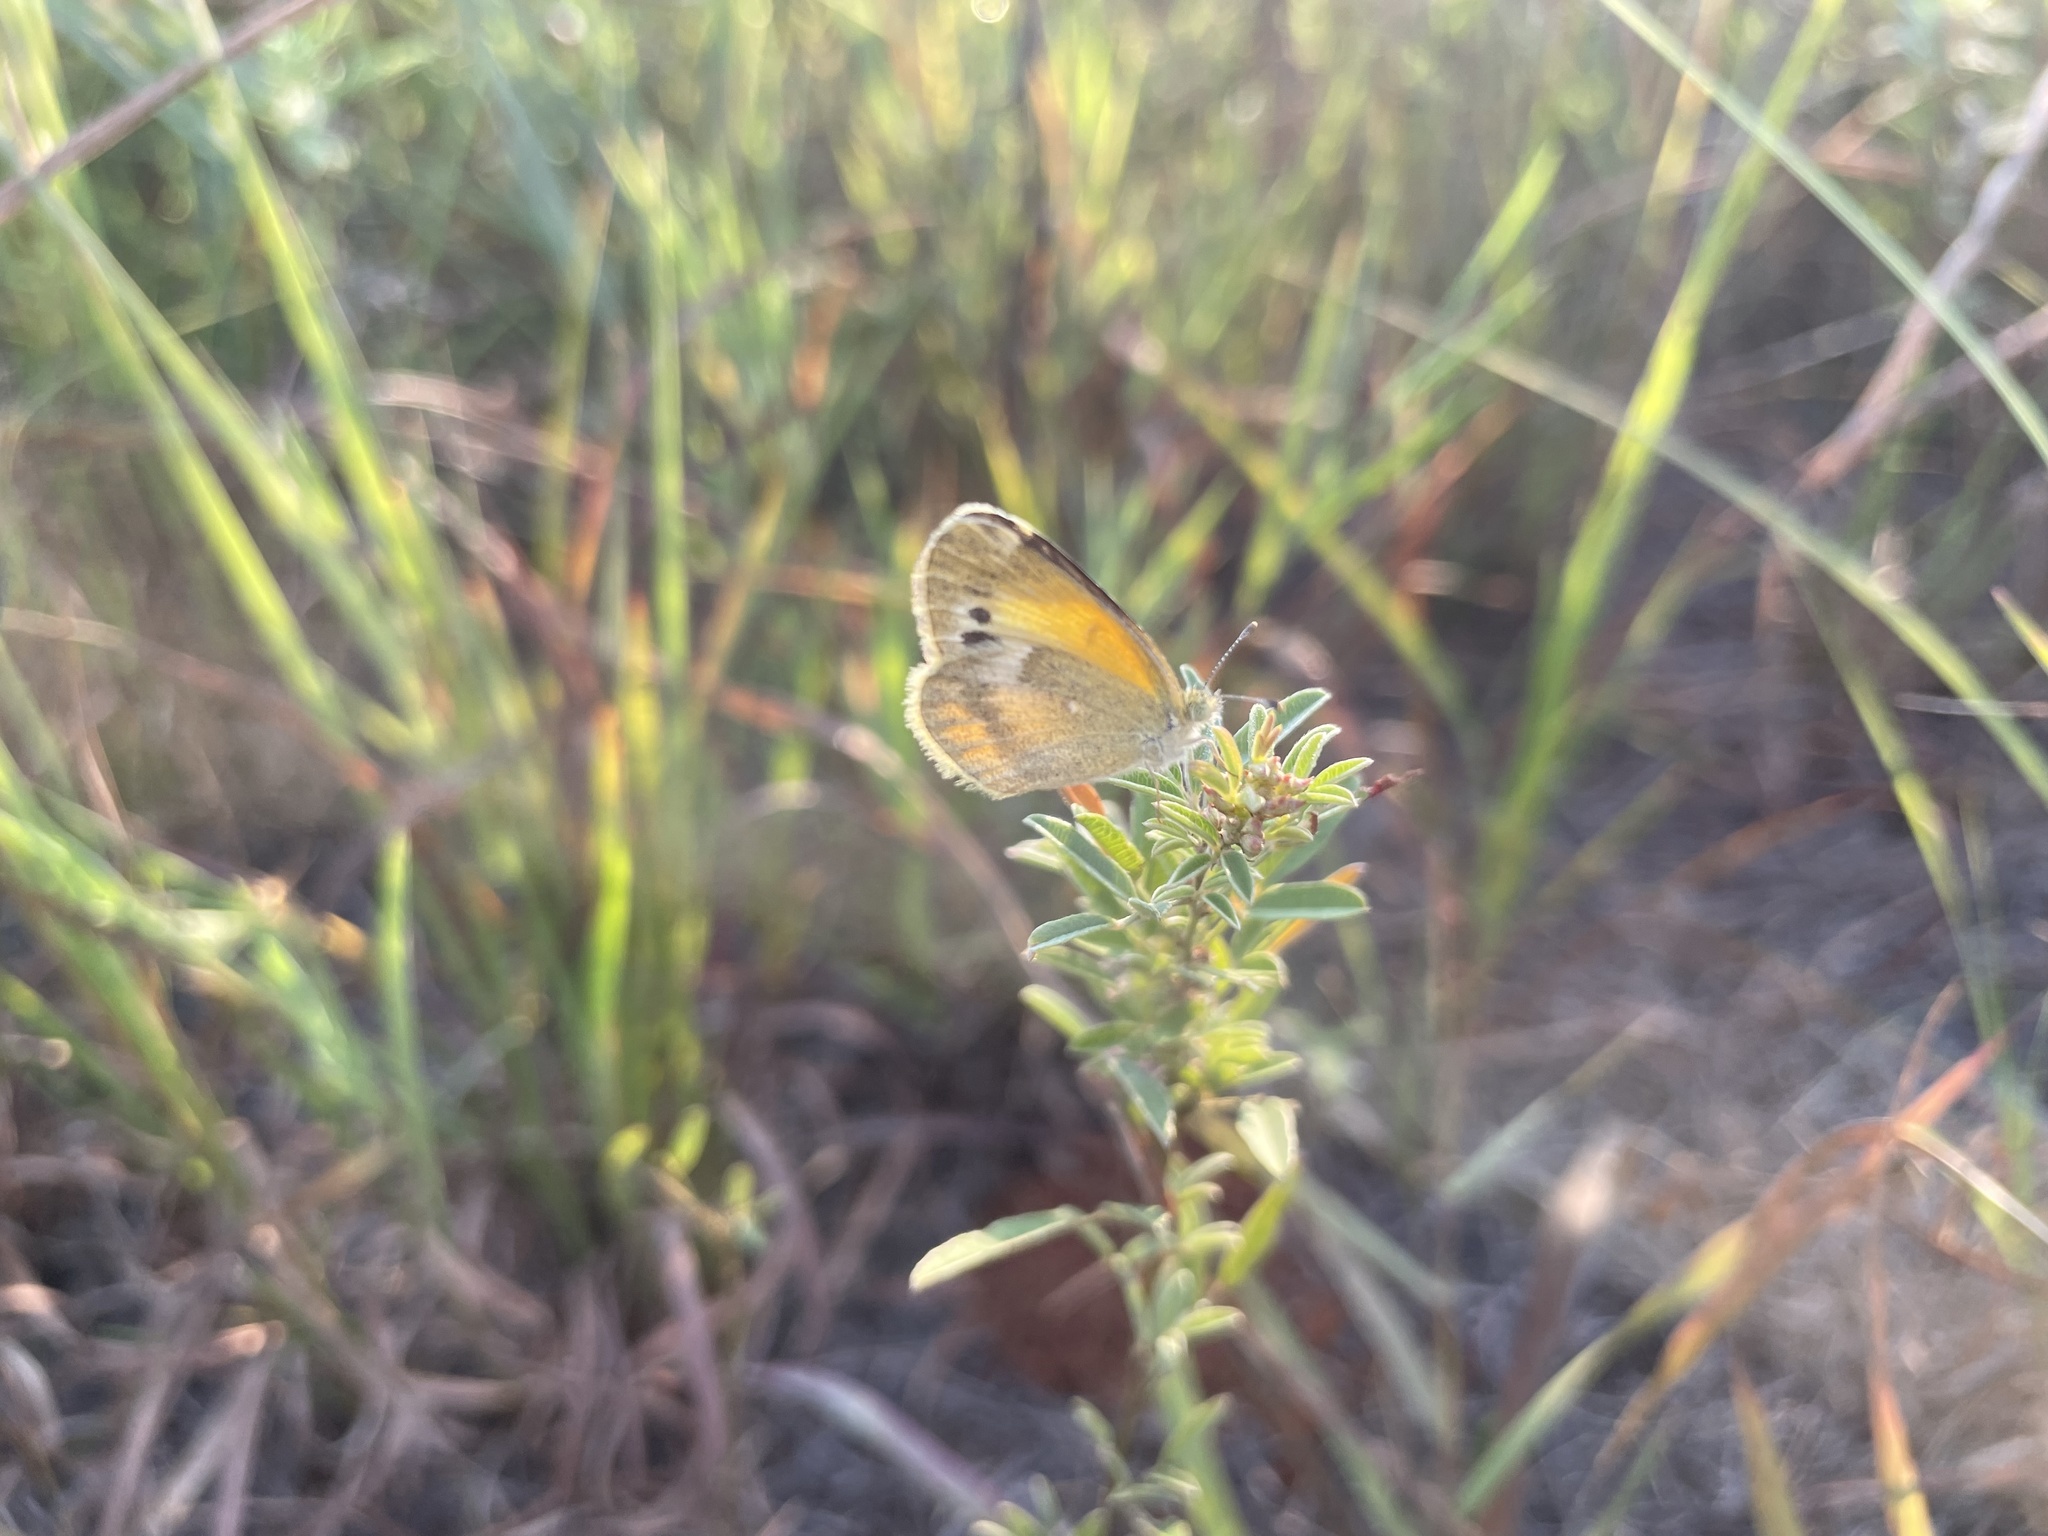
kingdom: Animalia
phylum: Arthropoda
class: Insecta
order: Lepidoptera
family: Pieridae
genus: Nathalis
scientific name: Nathalis iole
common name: Dainty sulphur
